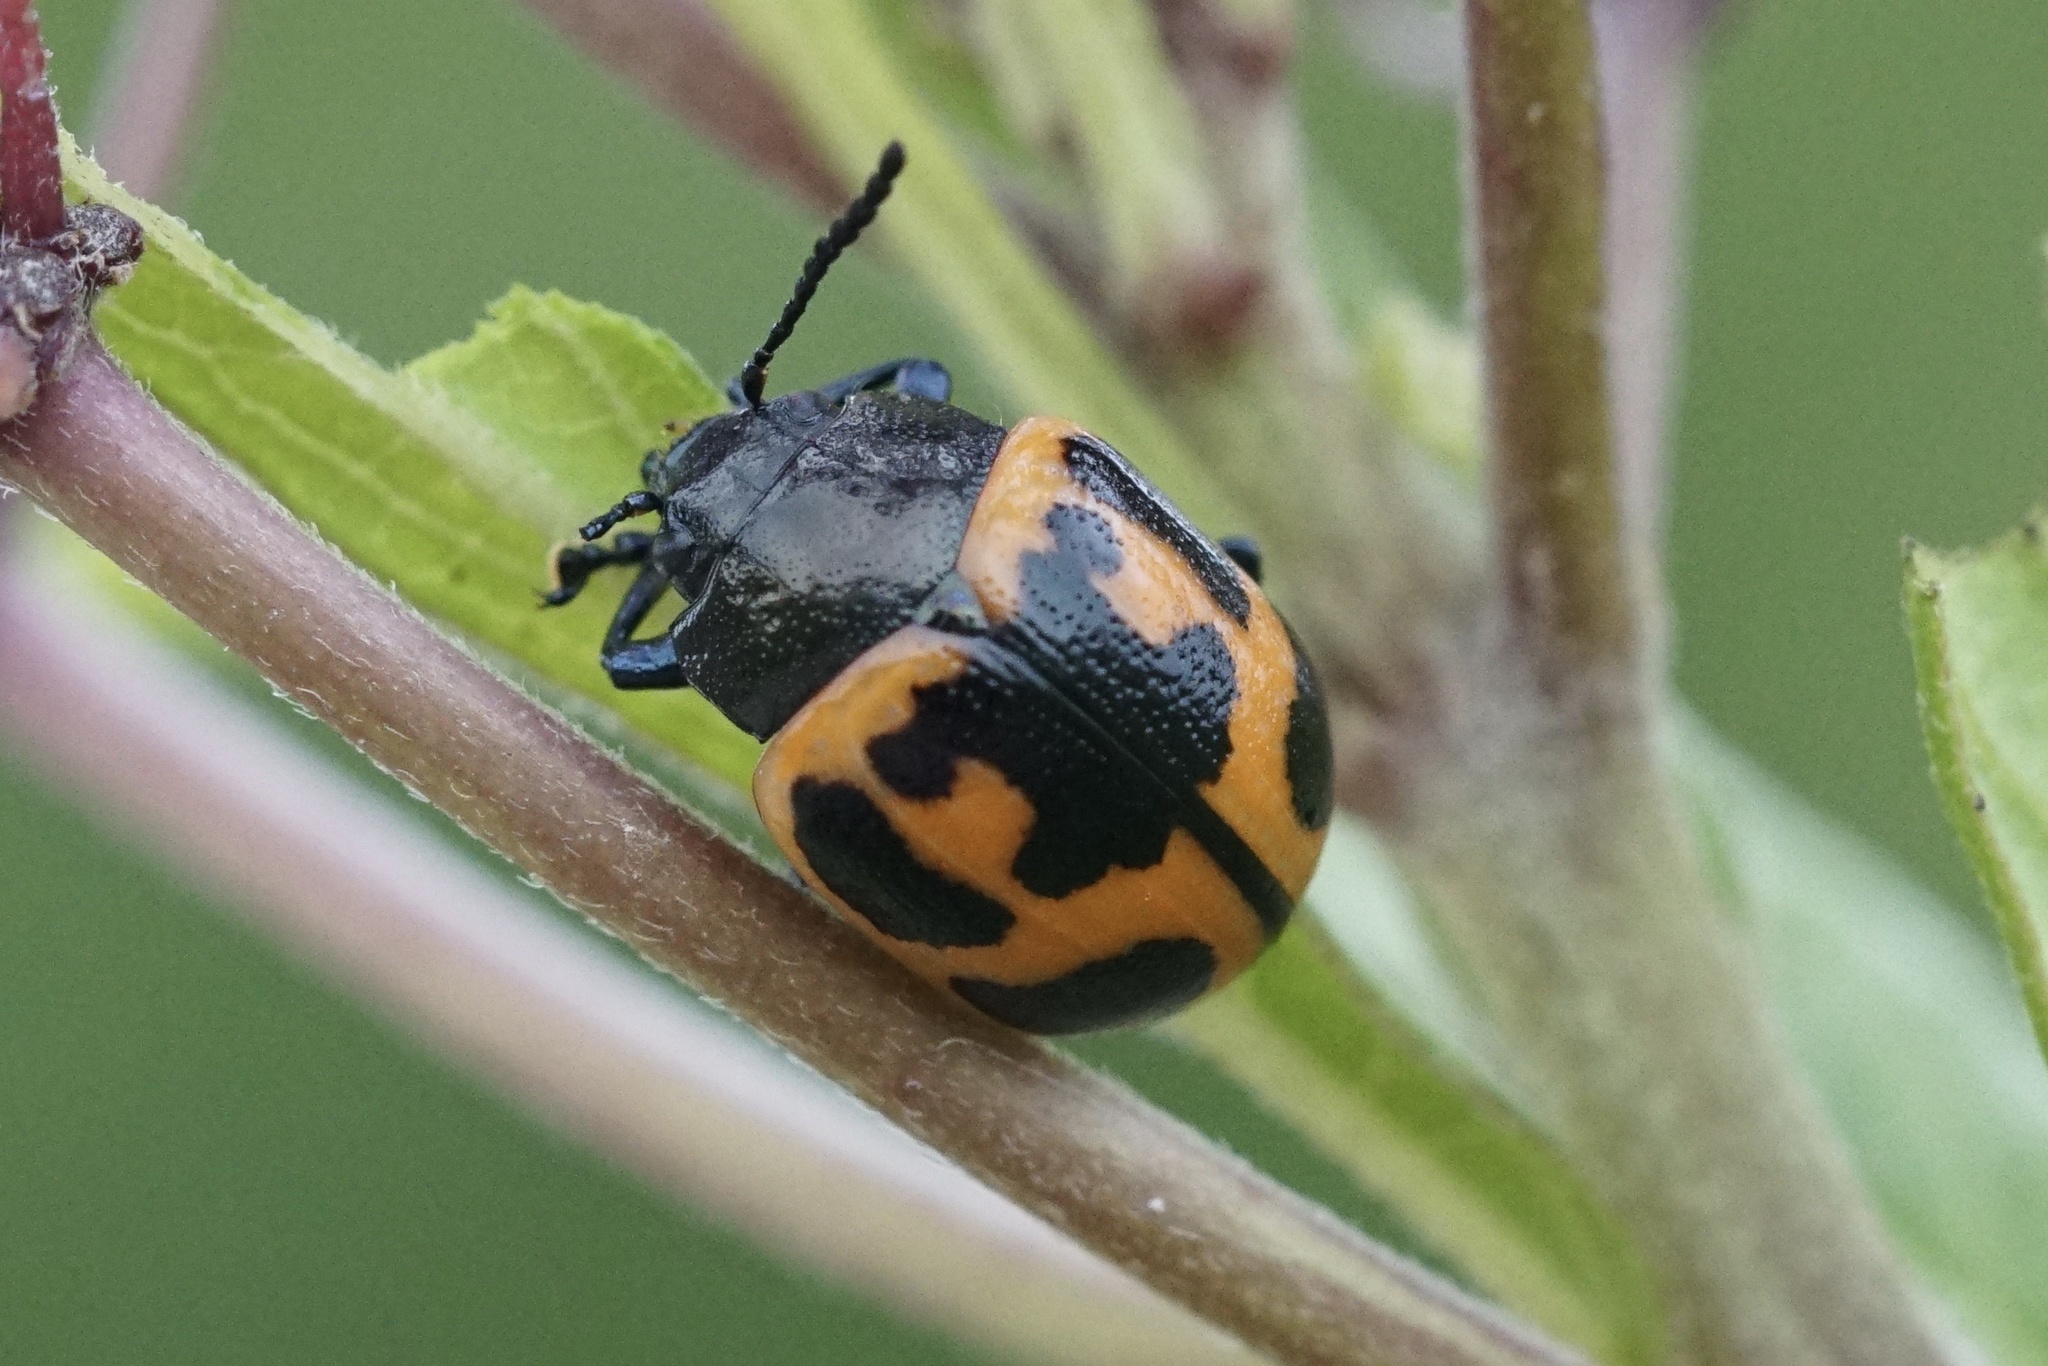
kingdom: Animalia
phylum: Arthropoda
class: Insecta
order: Coleoptera
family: Chrysomelidae
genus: Labidomera
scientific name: Labidomera clivicollis
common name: Swamp milkweed leaf beetle
